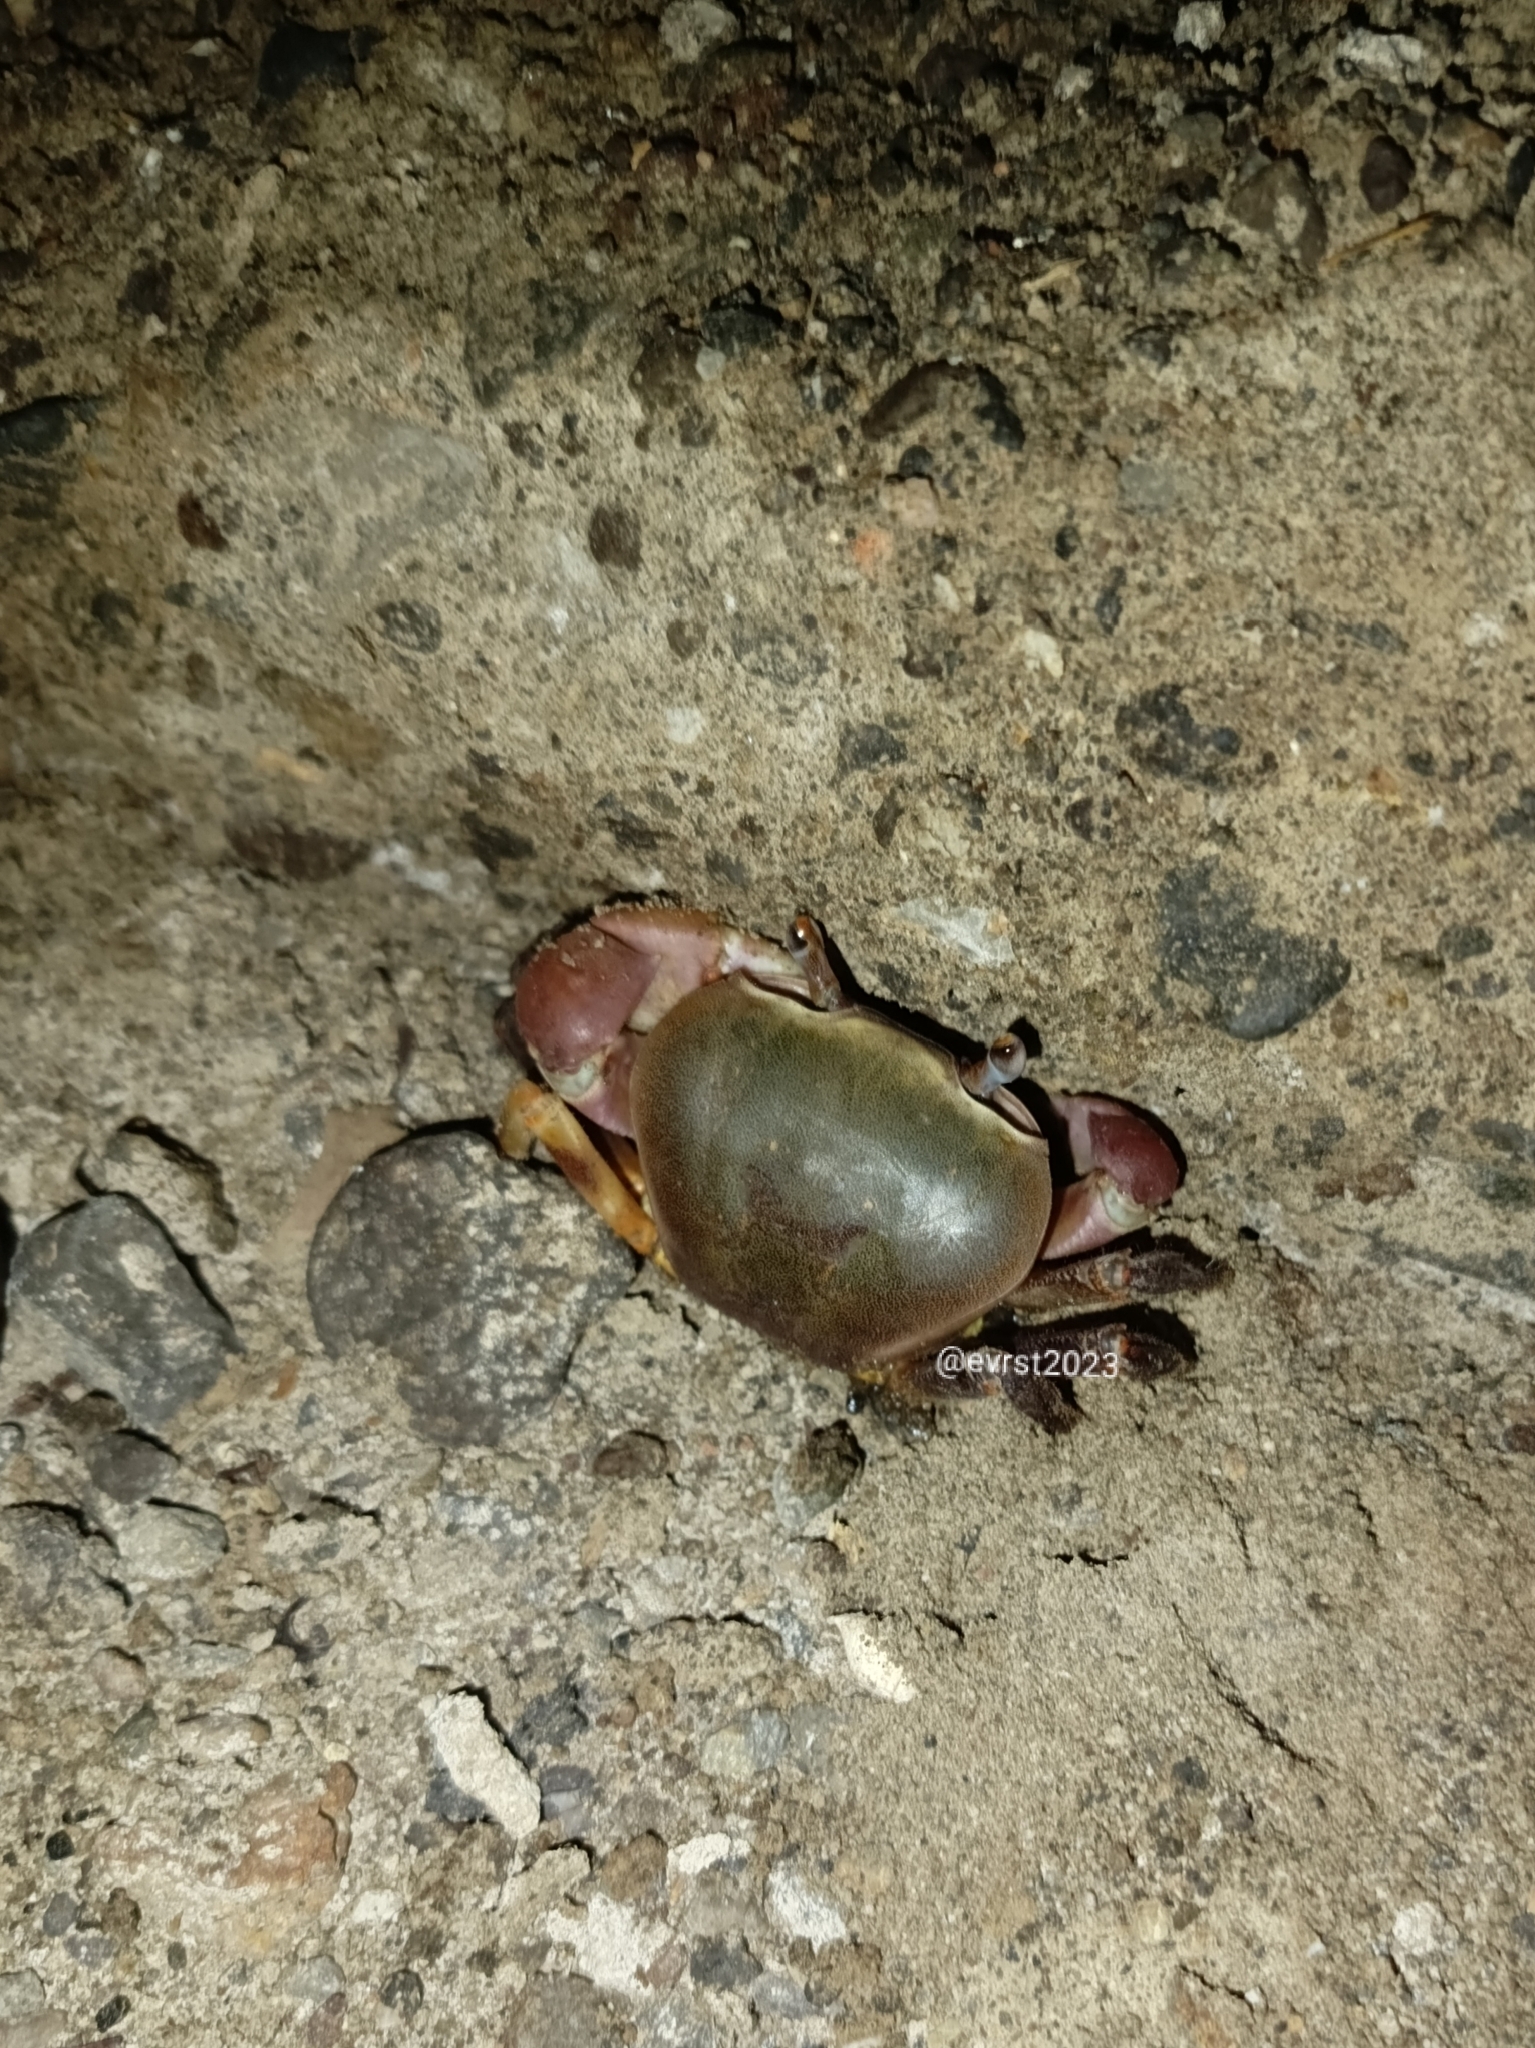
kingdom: Animalia
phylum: Arthropoda
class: Malacostraca
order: Decapoda
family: Gecarcinidae
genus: Cardisoma
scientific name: Cardisoma carnifex
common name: Brown land crab
